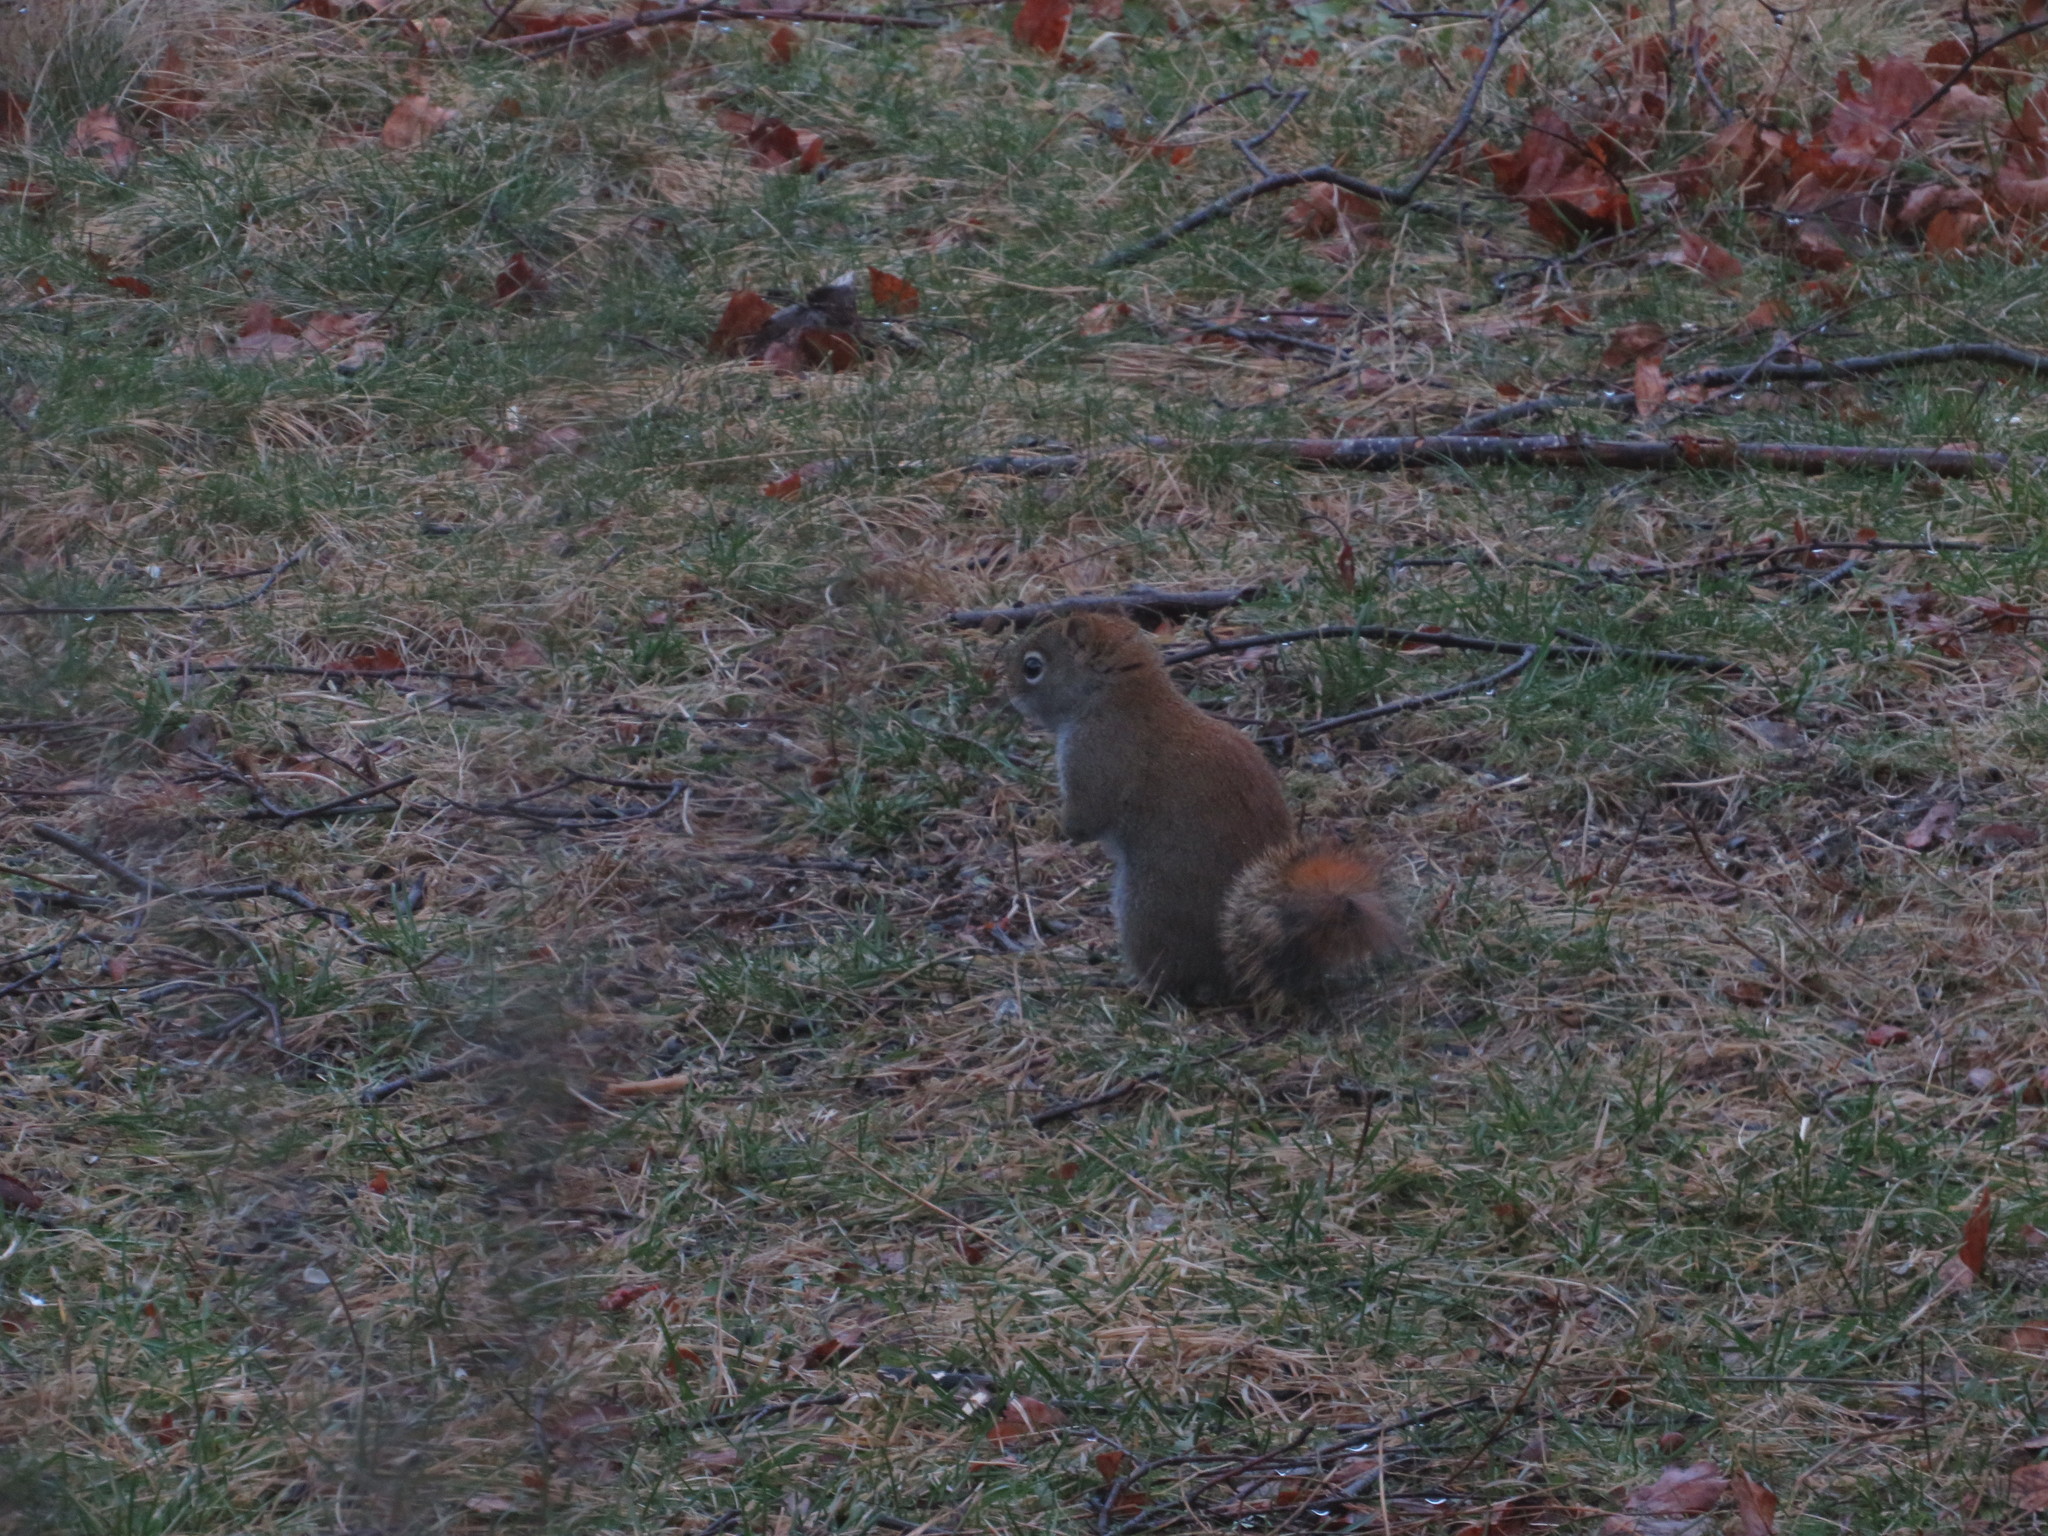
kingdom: Animalia
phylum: Chordata
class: Mammalia
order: Rodentia
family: Sciuridae
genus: Tamiasciurus
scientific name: Tamiasciurus hudsonicus
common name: Red squirrel
